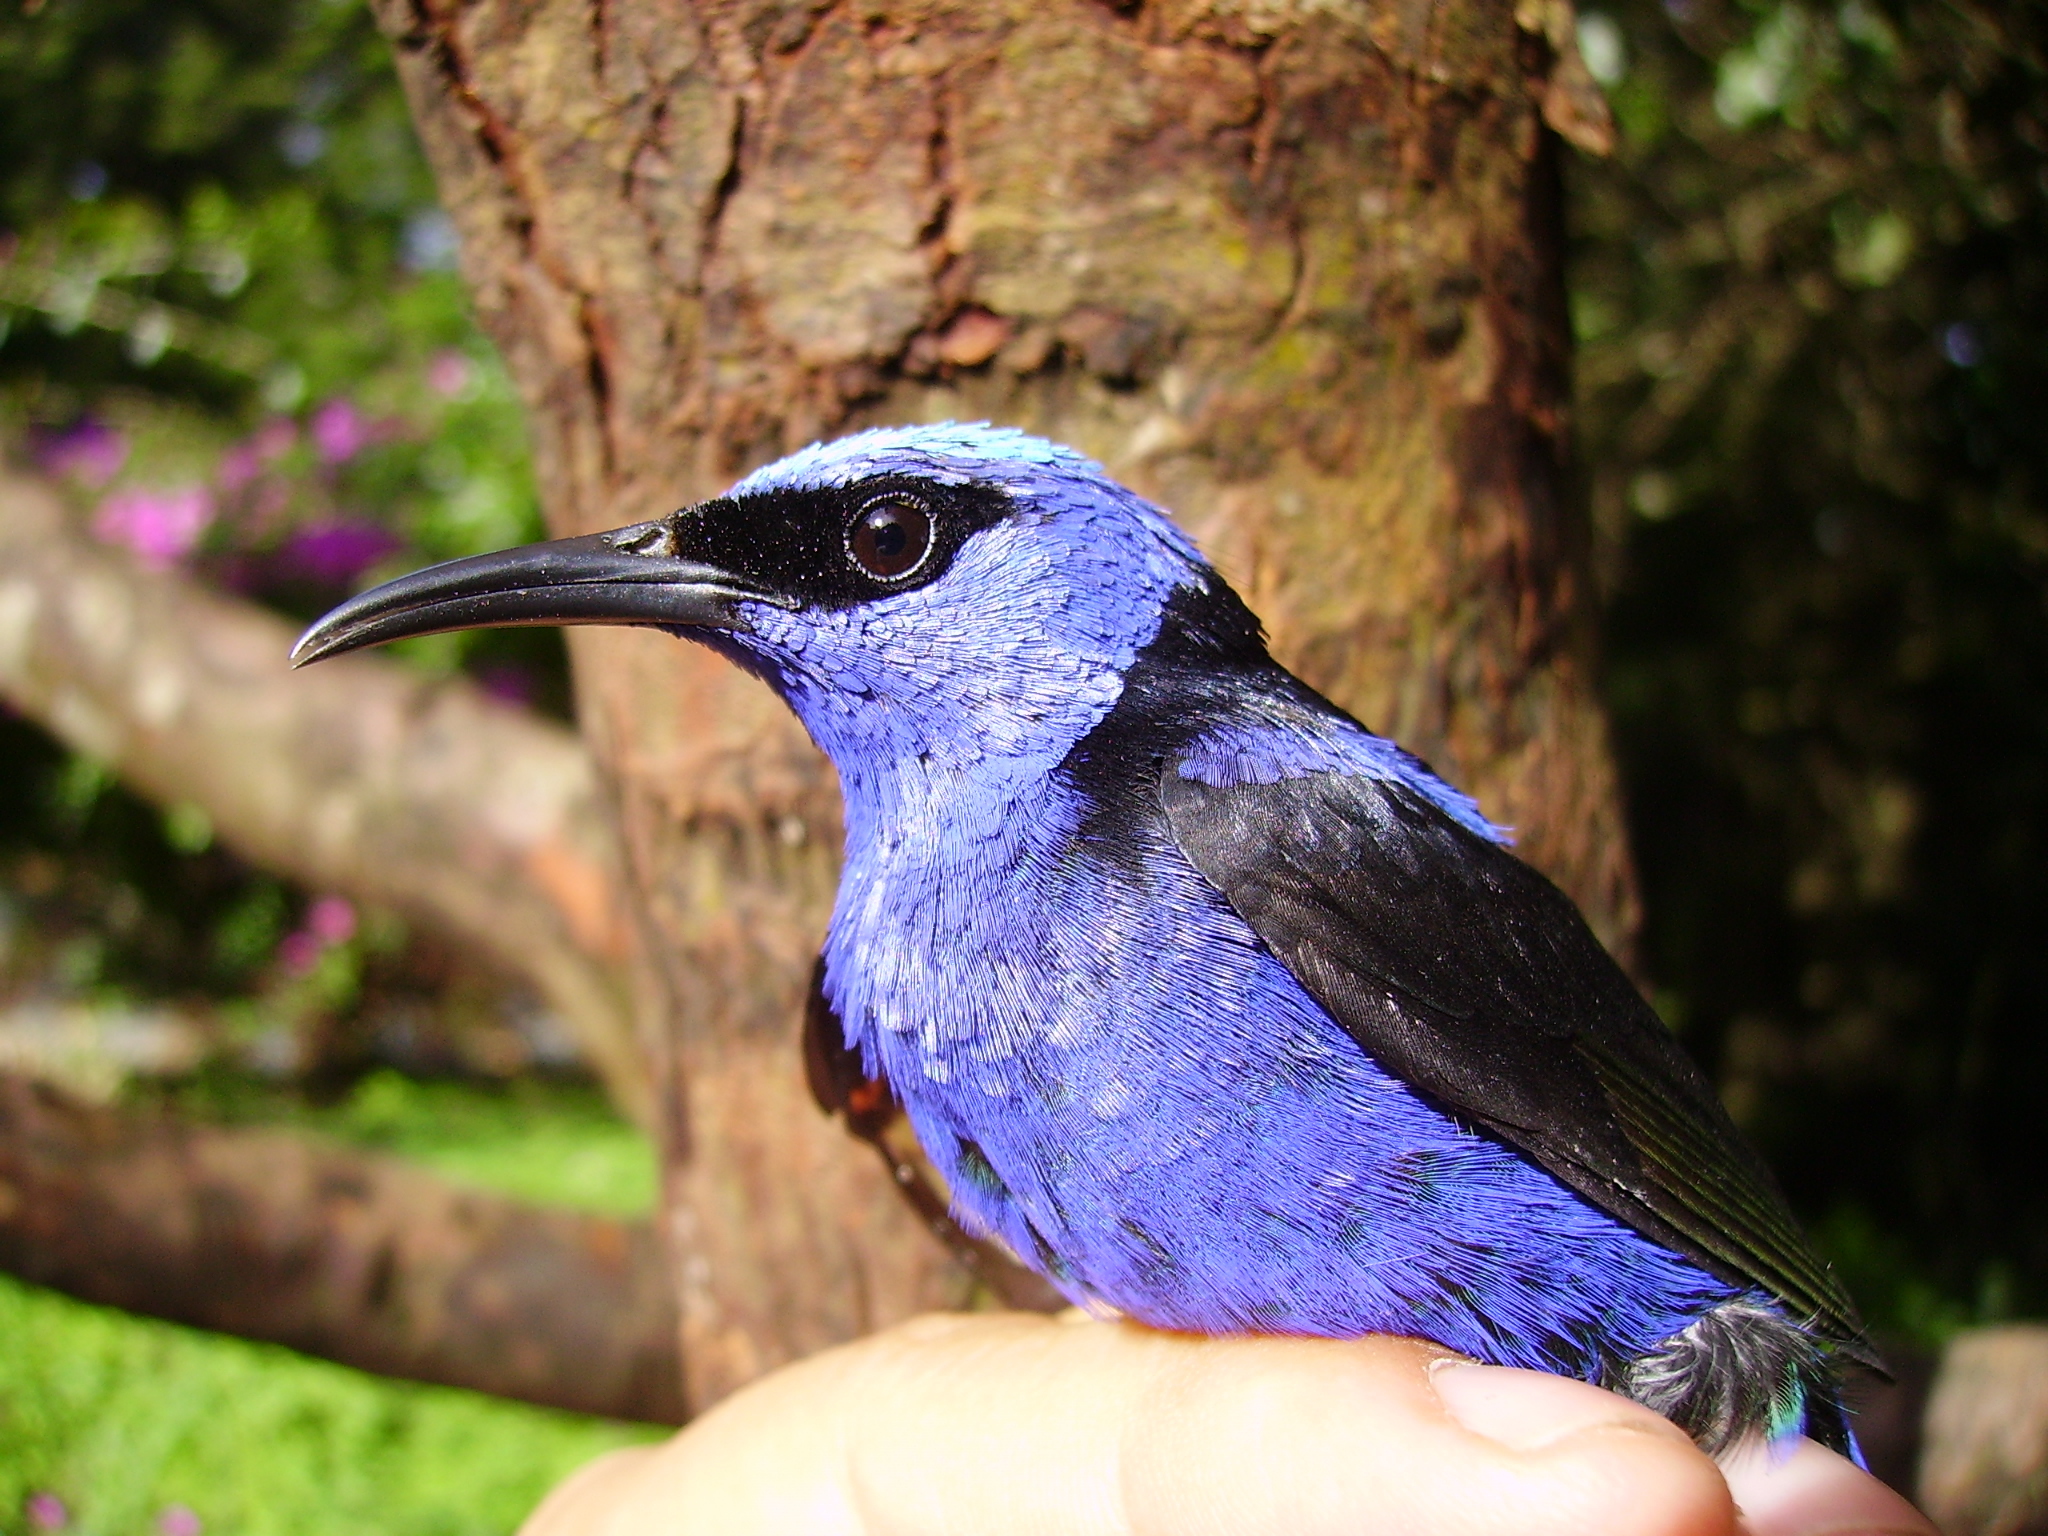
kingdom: Animalia
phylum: Chordata
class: Aves
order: Passeriformes
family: Thraupidae
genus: Cyanerpes
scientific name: Cyanerpes cyaneus
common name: Red-legged honeycreeper
